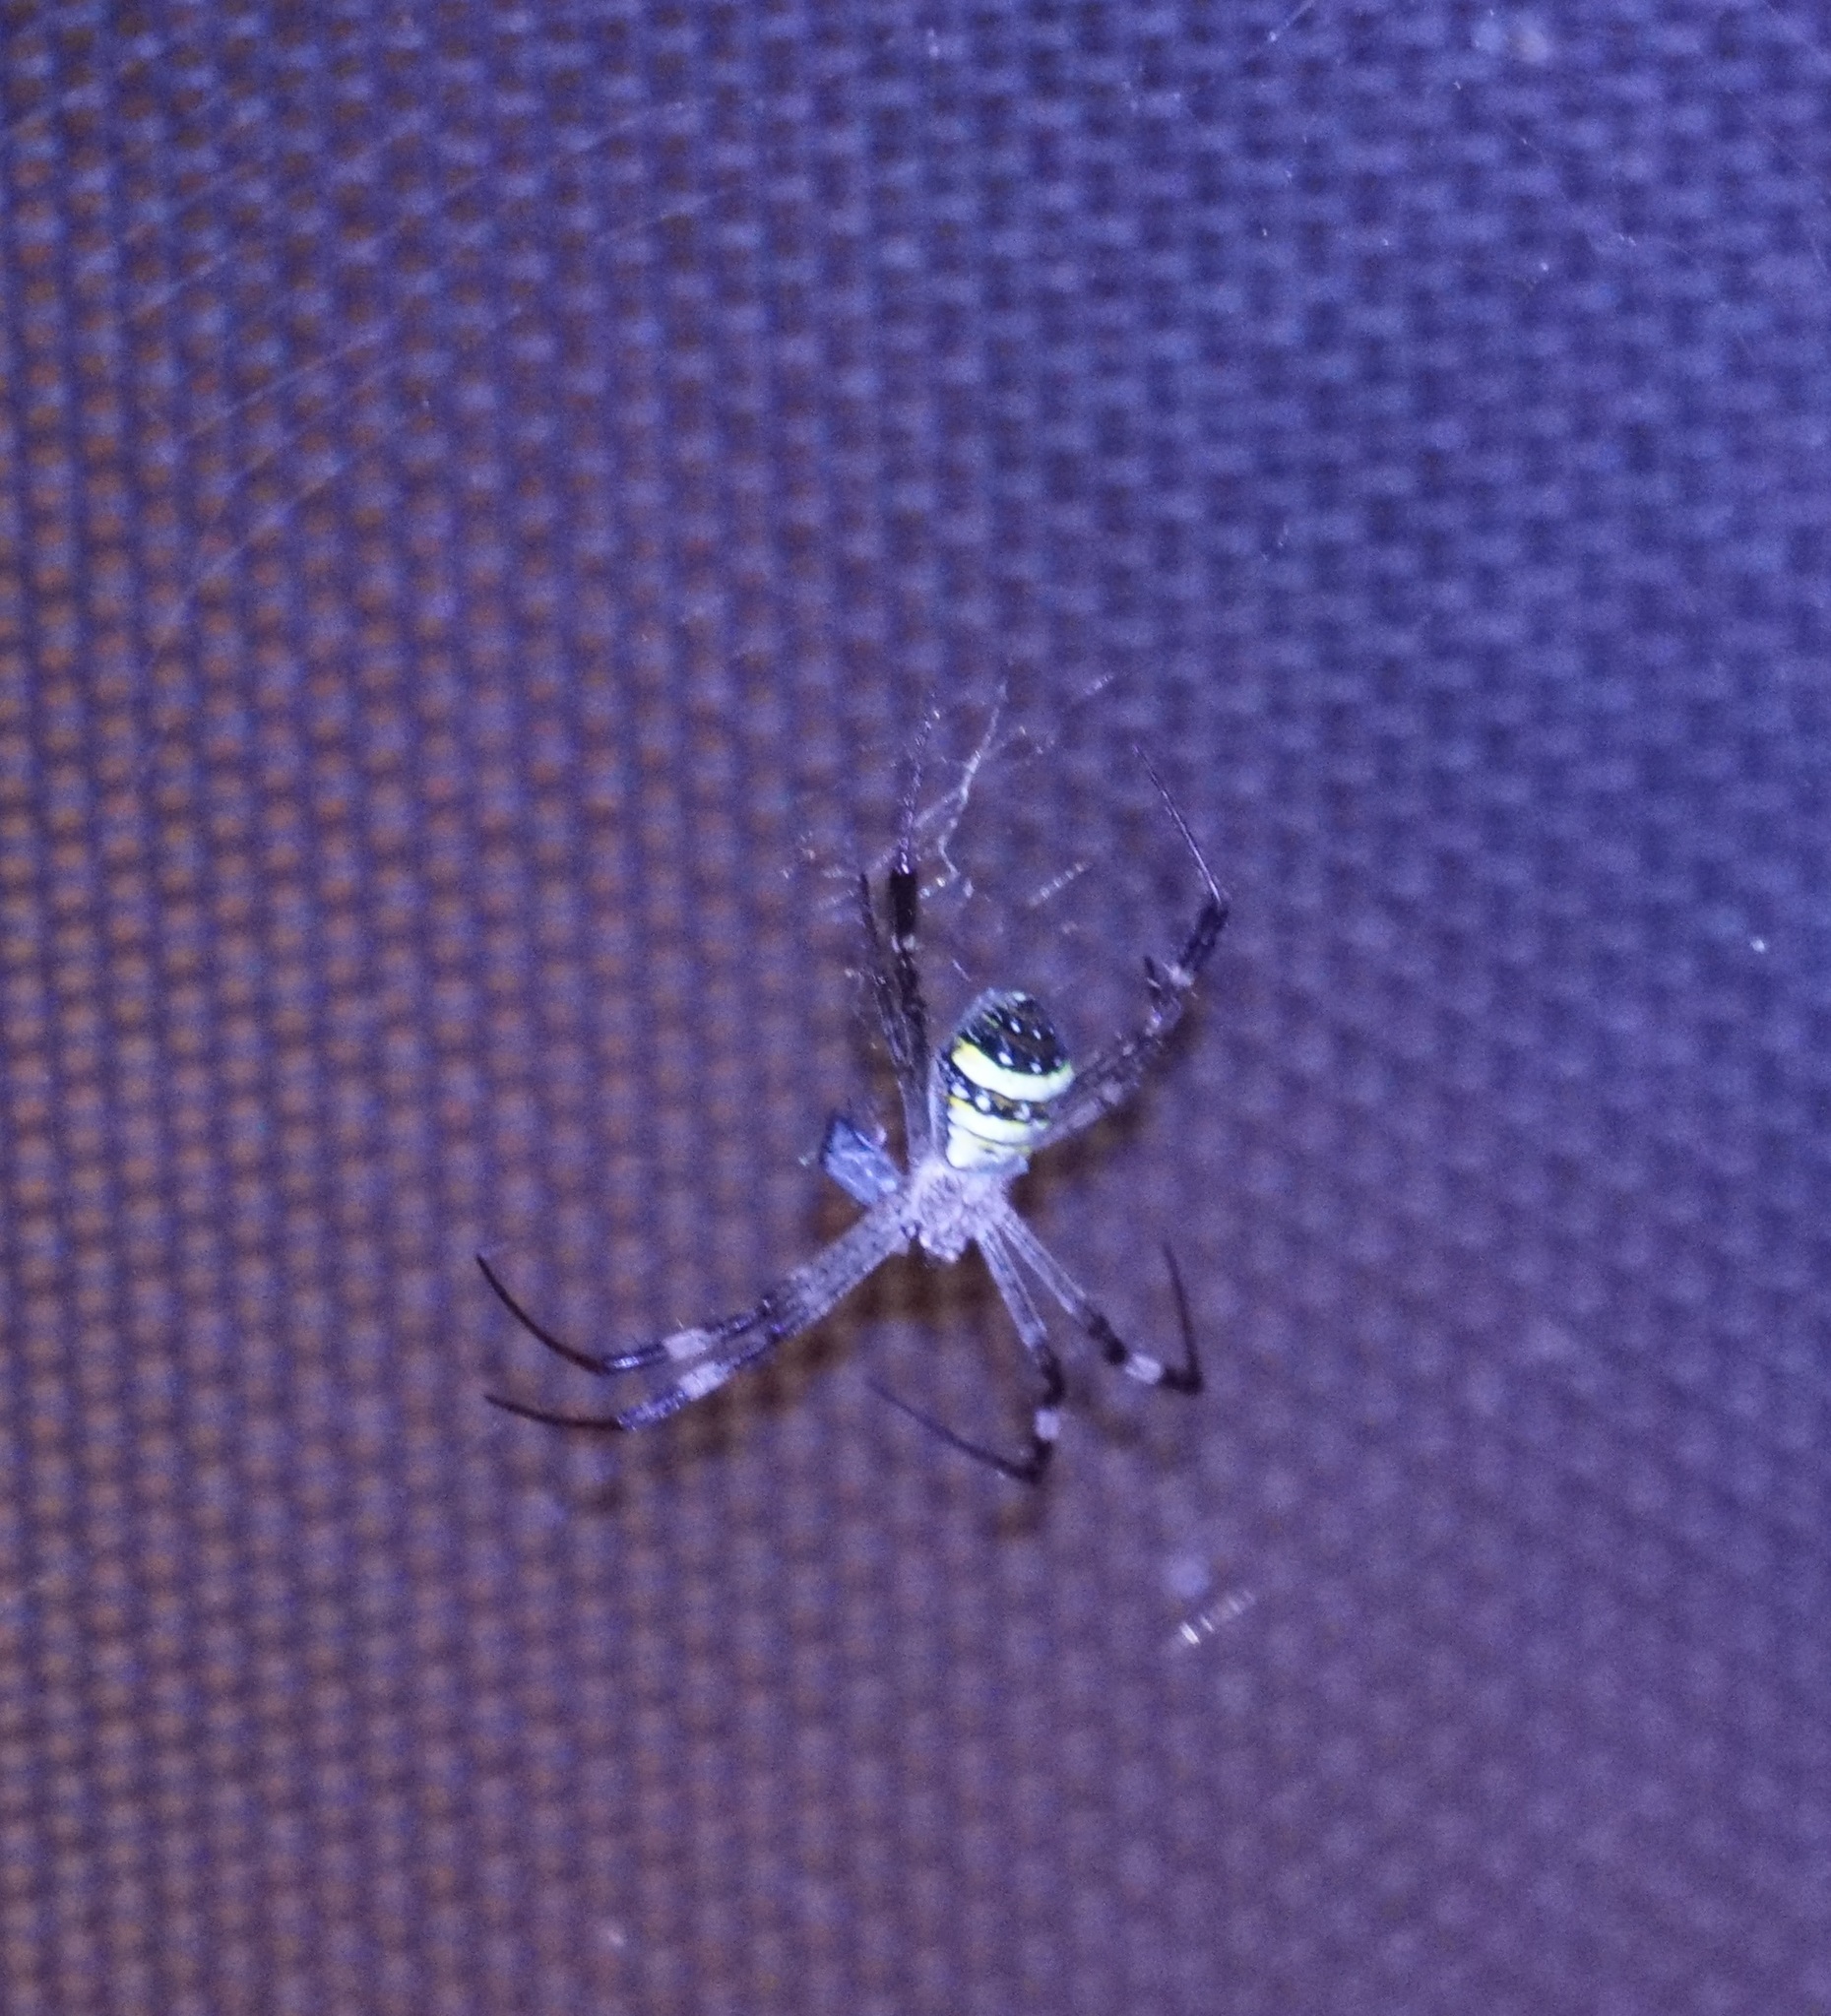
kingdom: Animalia
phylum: Arthropoda
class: Arachnida
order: Araneae
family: Araneidae
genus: Argiope
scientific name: Argiope aetherea
